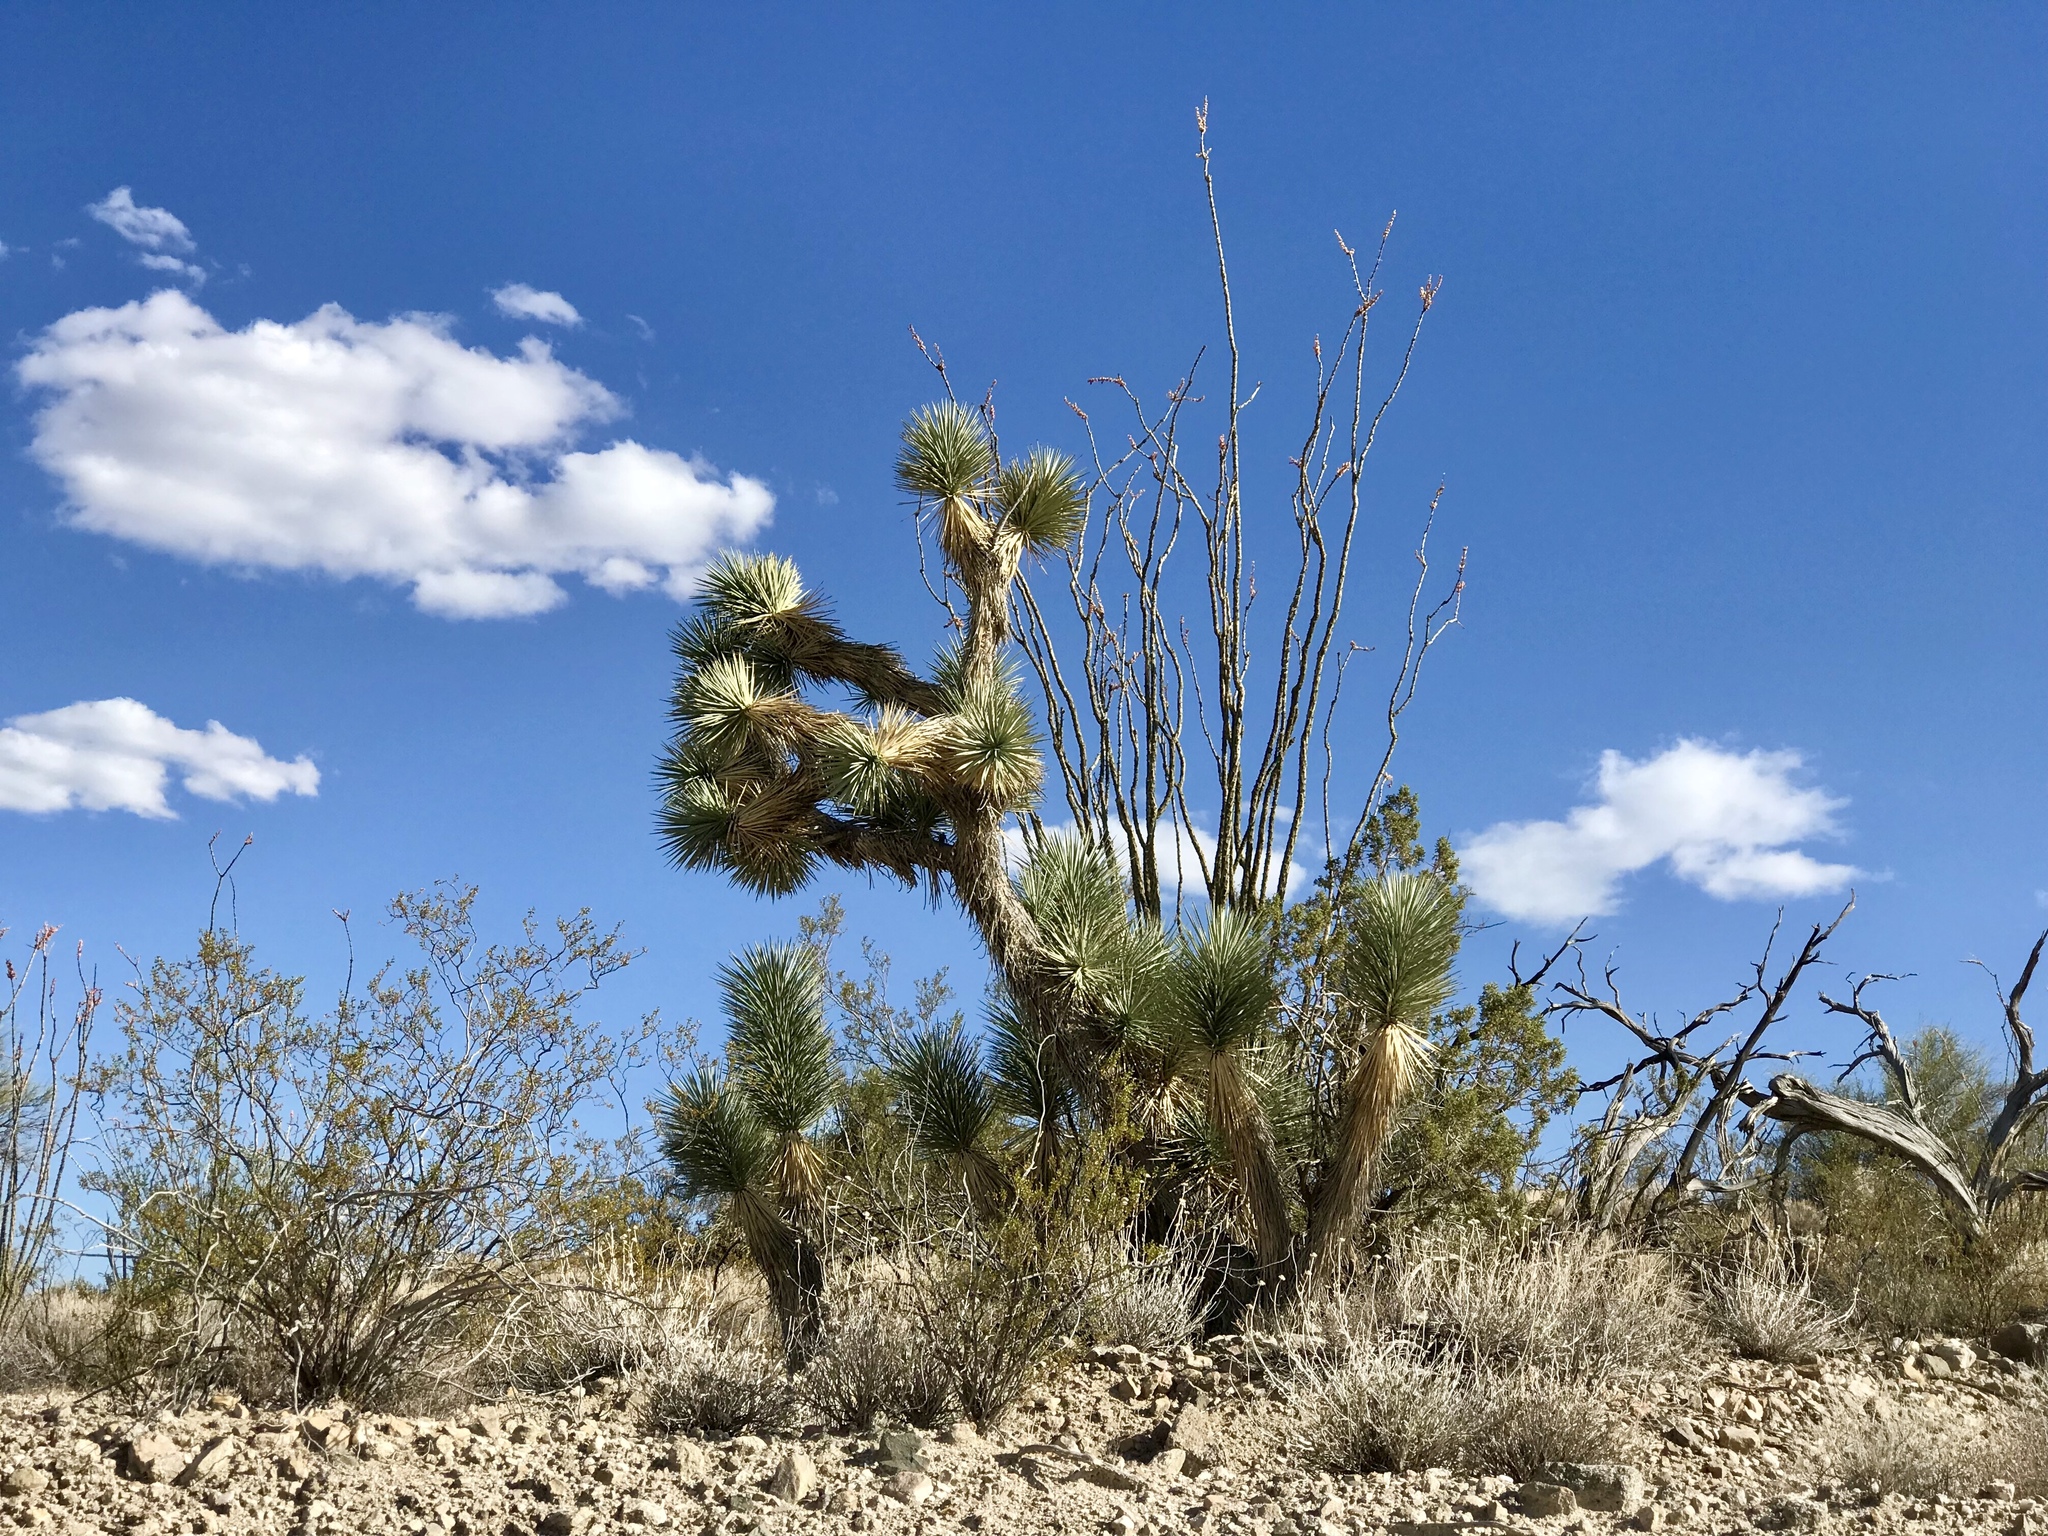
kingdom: Plantae
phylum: Tracheophyta
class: Liliopsida
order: Asparagales
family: Asparagaceae
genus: Yucca
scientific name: Yucca brevifolia
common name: Joshua tree
